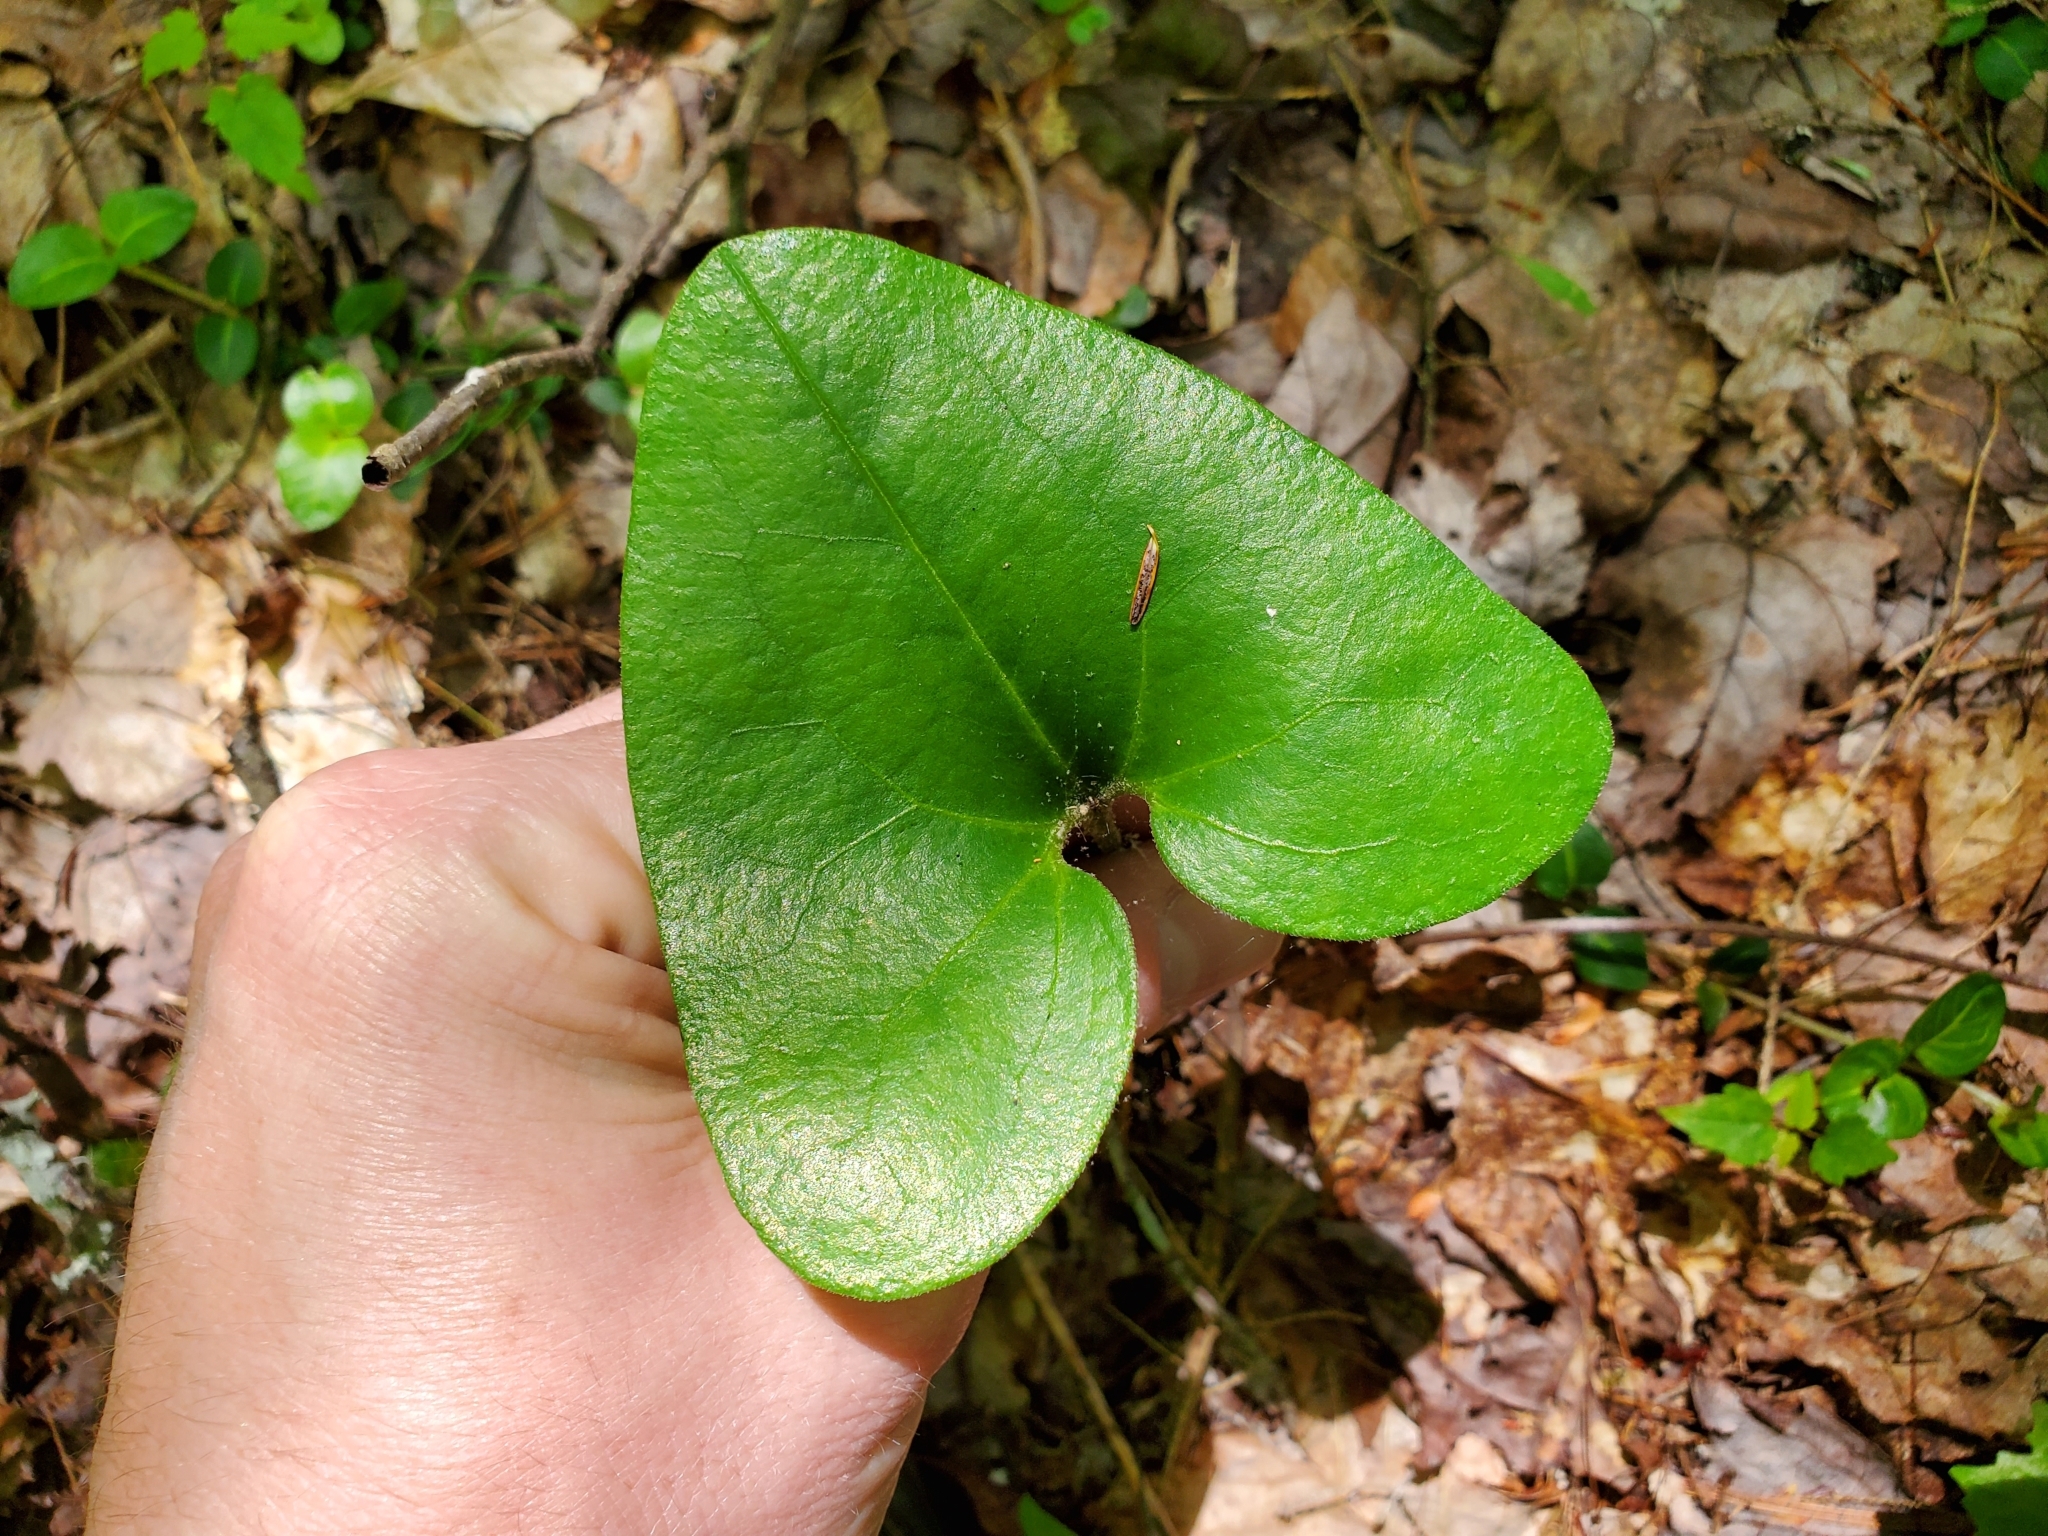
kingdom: Plantae
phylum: Tracheophyta
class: Magnoliopsida
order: Piperales
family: Aristolochiaceae
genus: Hexastylis
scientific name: Hexastylis arifolia
